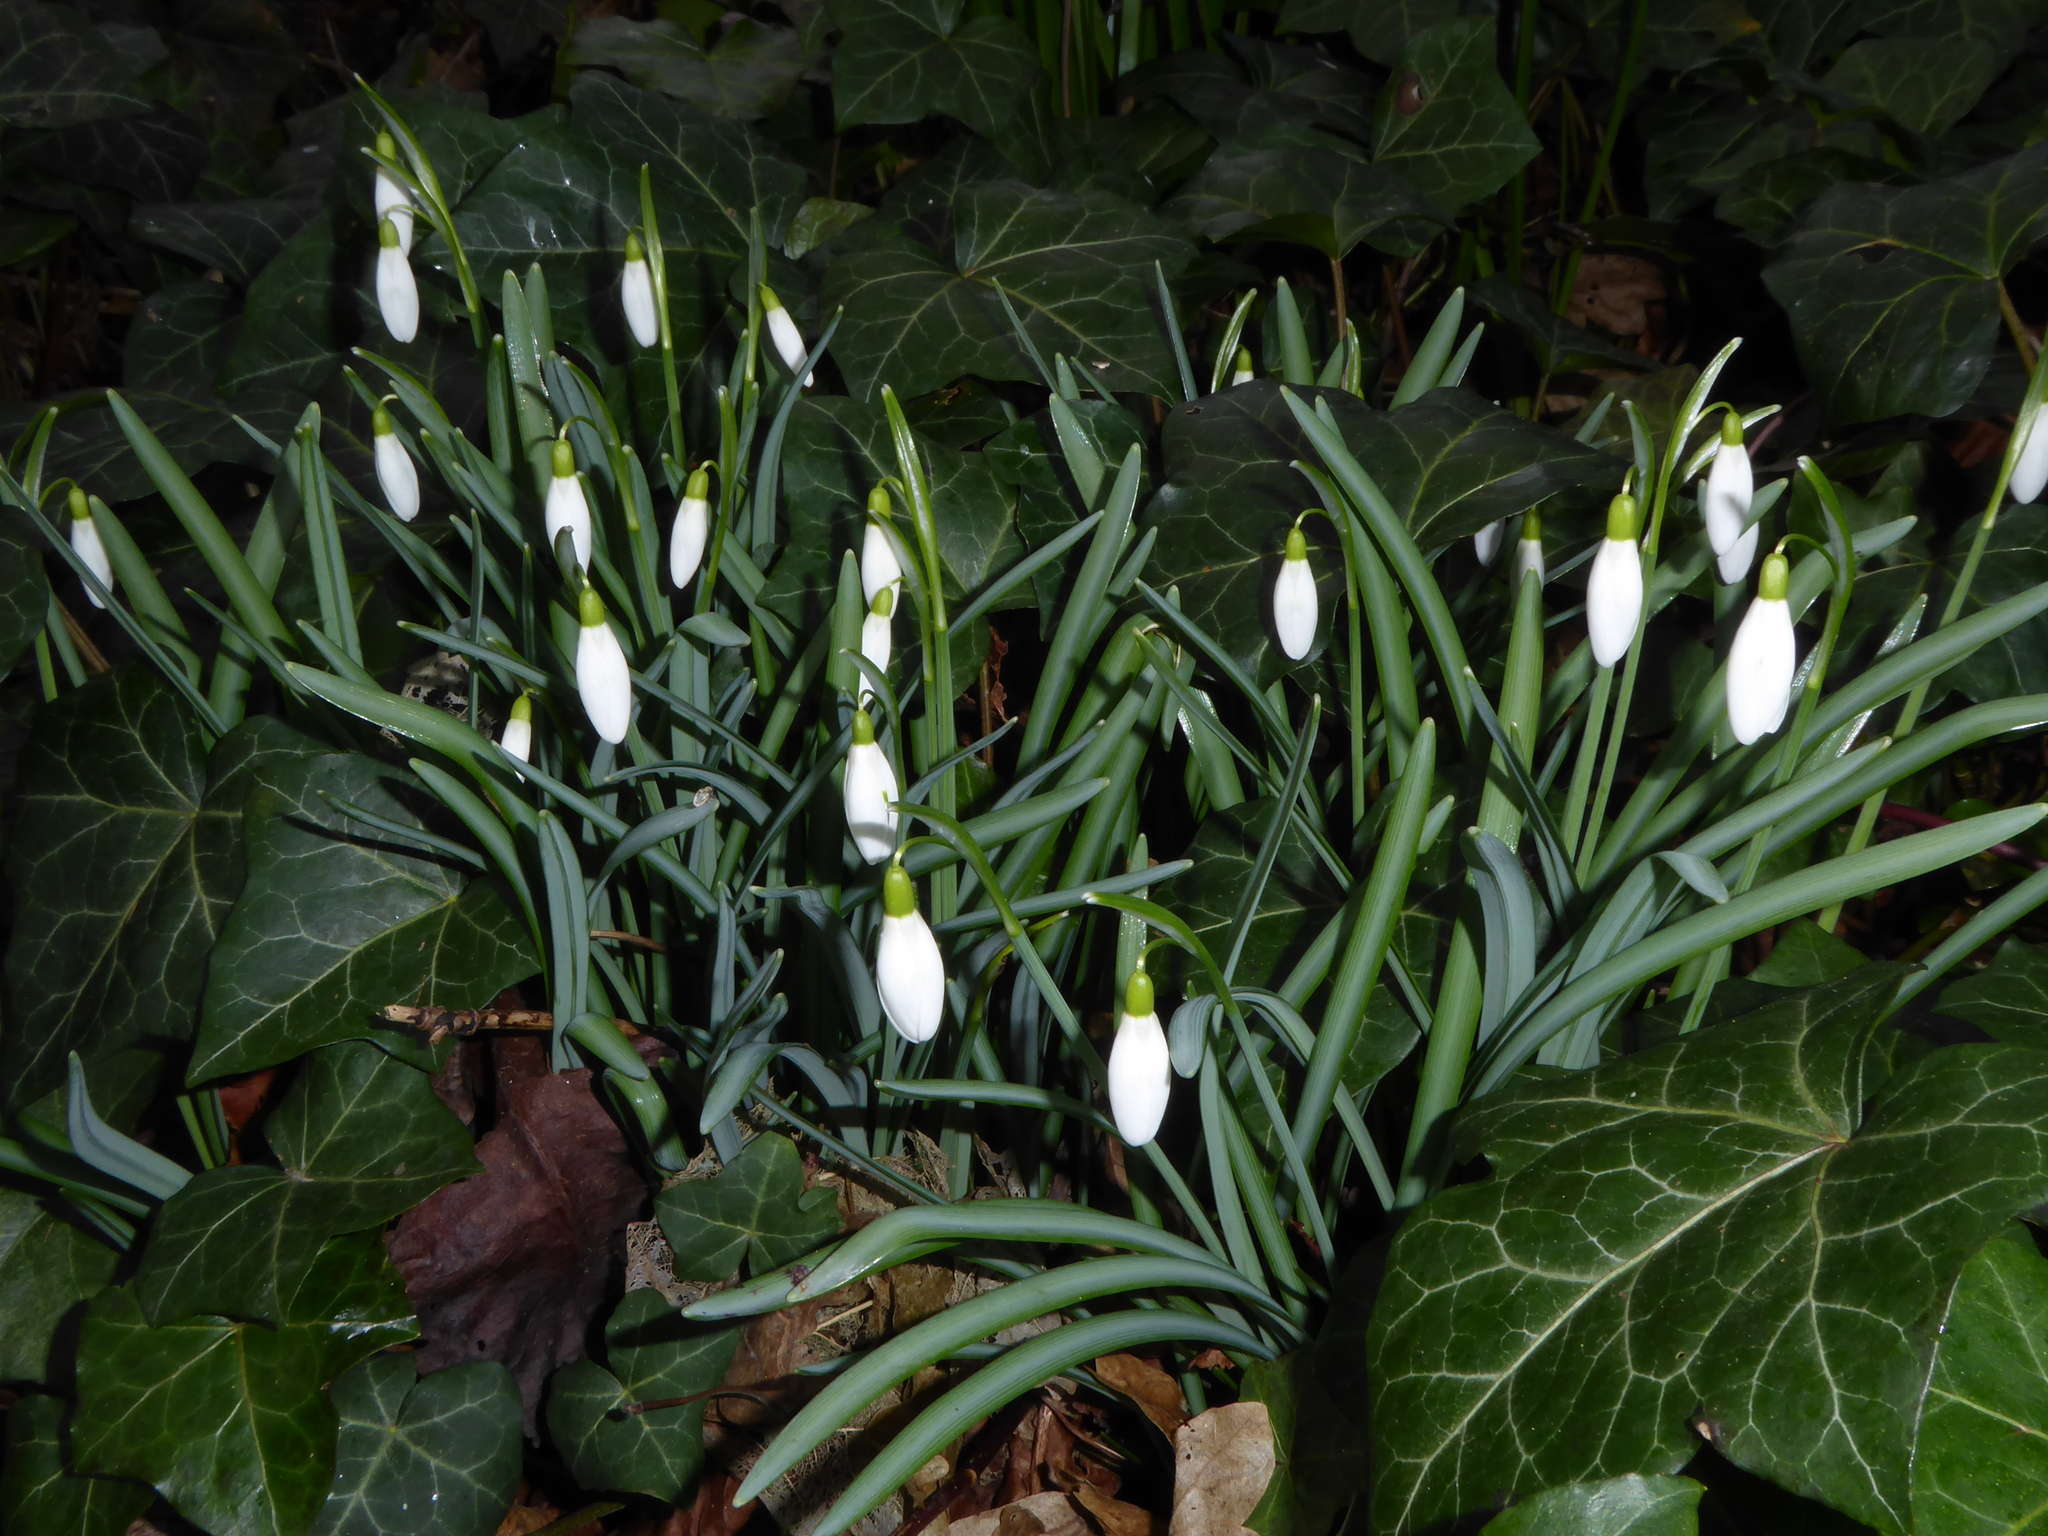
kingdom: Plantae
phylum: Tracheophyta
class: Liliopsida
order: Asparagales
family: Amaryllidaceae
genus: Galanthus
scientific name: Galanthus nivalis
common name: Snowdrop
